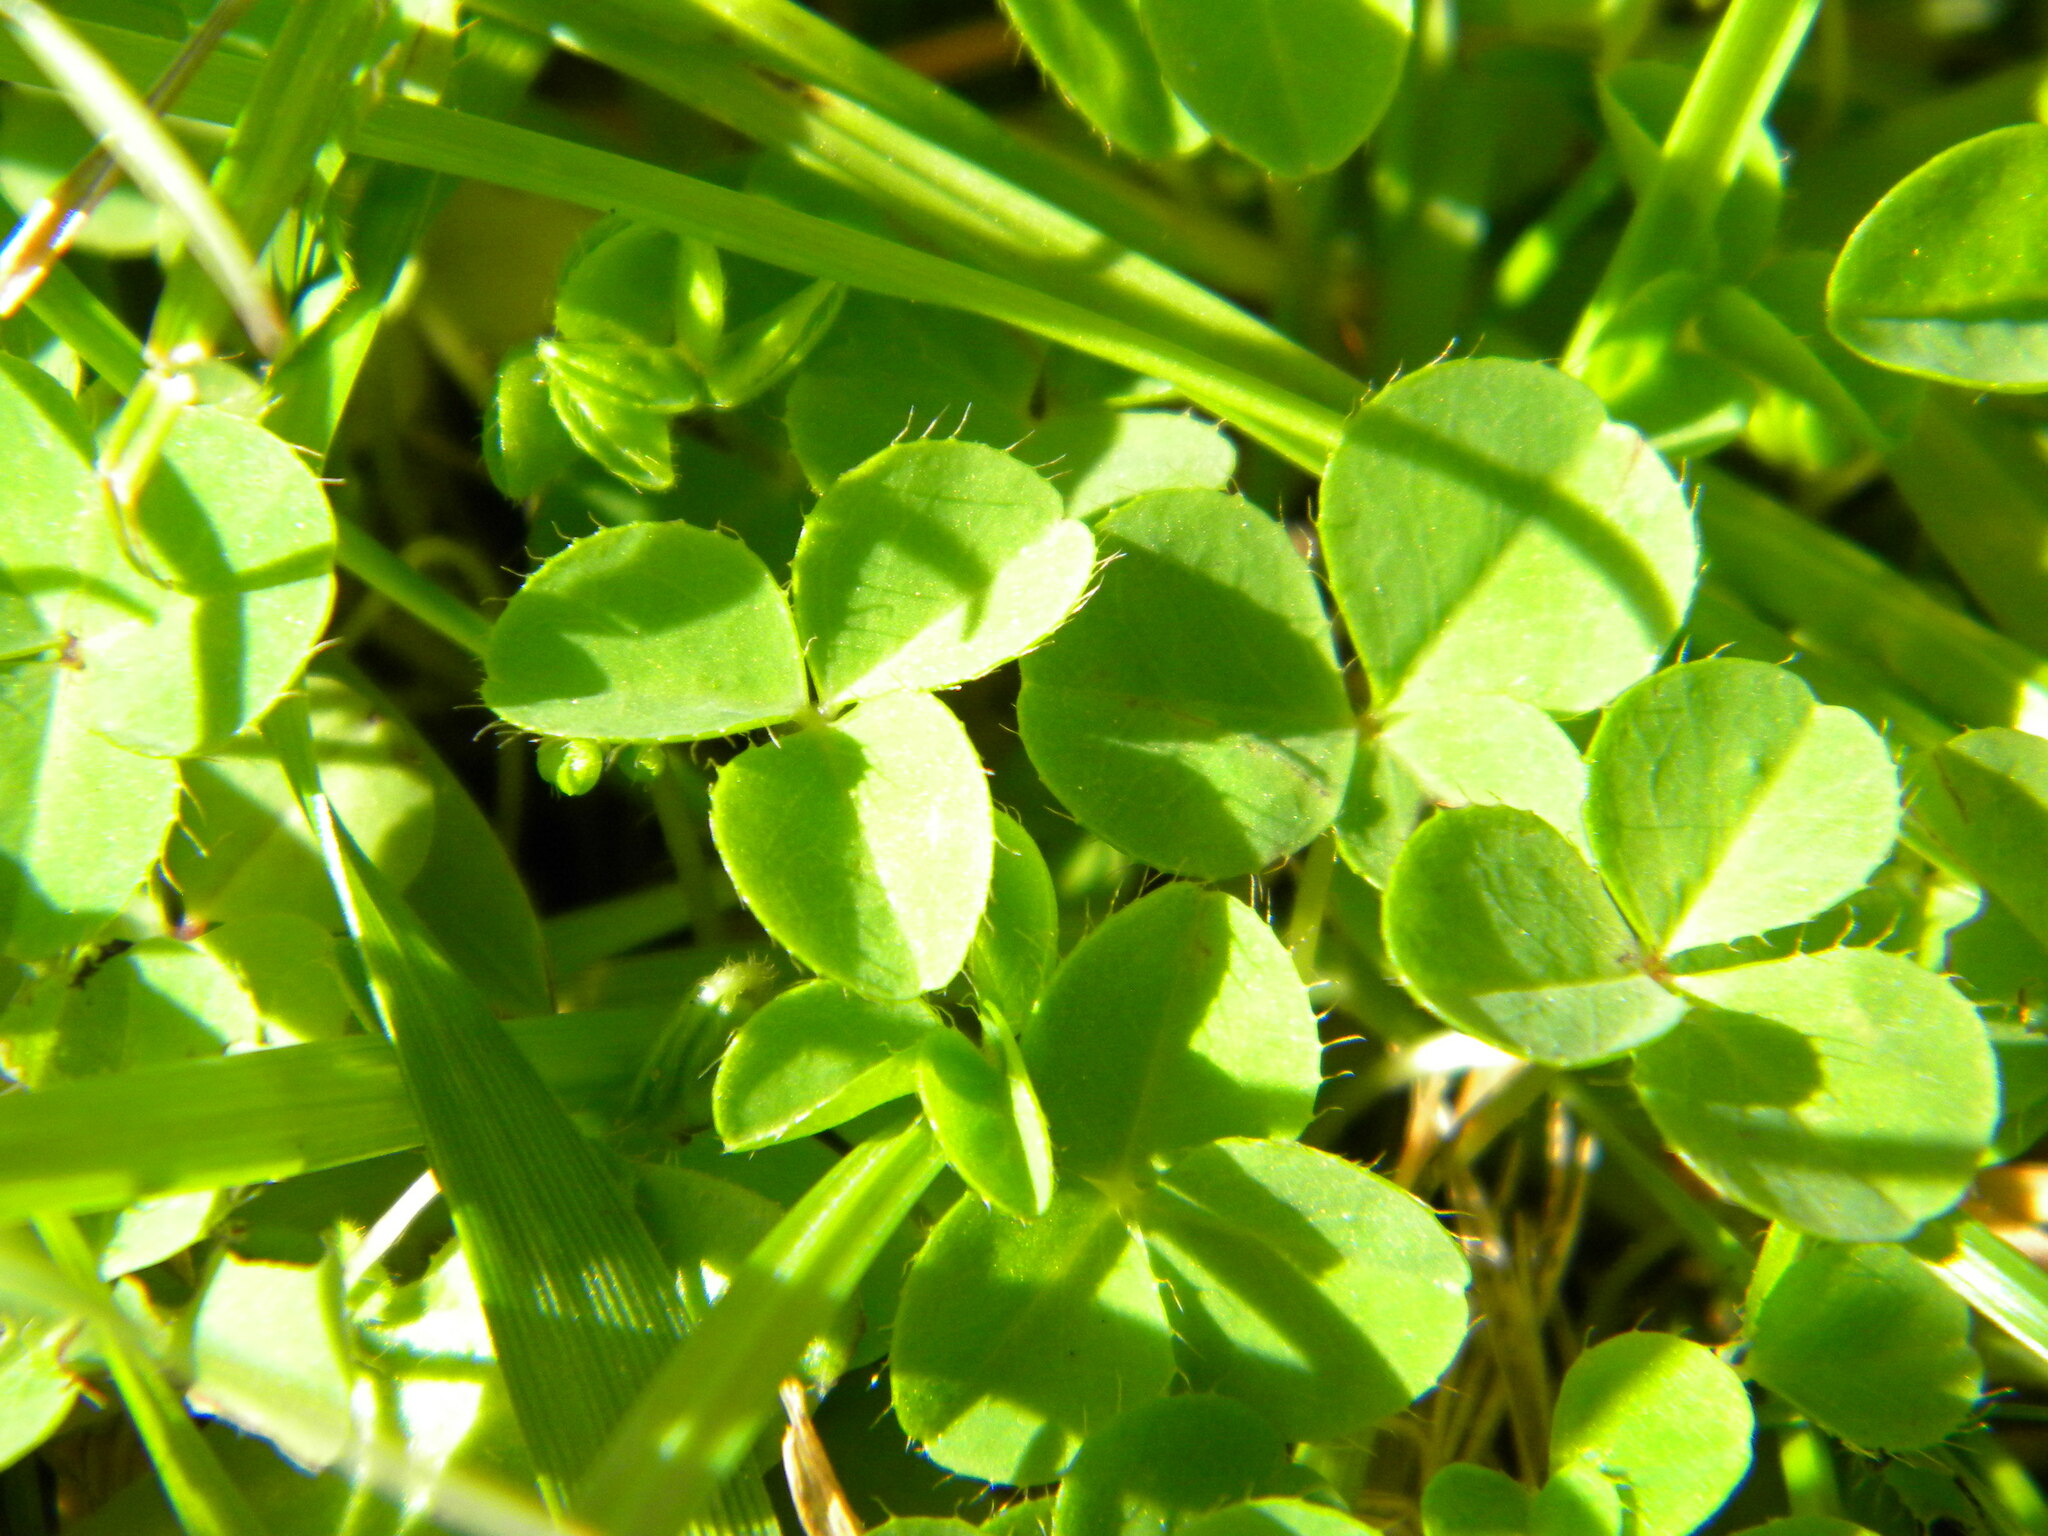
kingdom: Plantae
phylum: Tracheophyta
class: Magnoliopsida
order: Oxalidales
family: Oxalidaceae
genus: Oxalis
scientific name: Oxalis minuta
